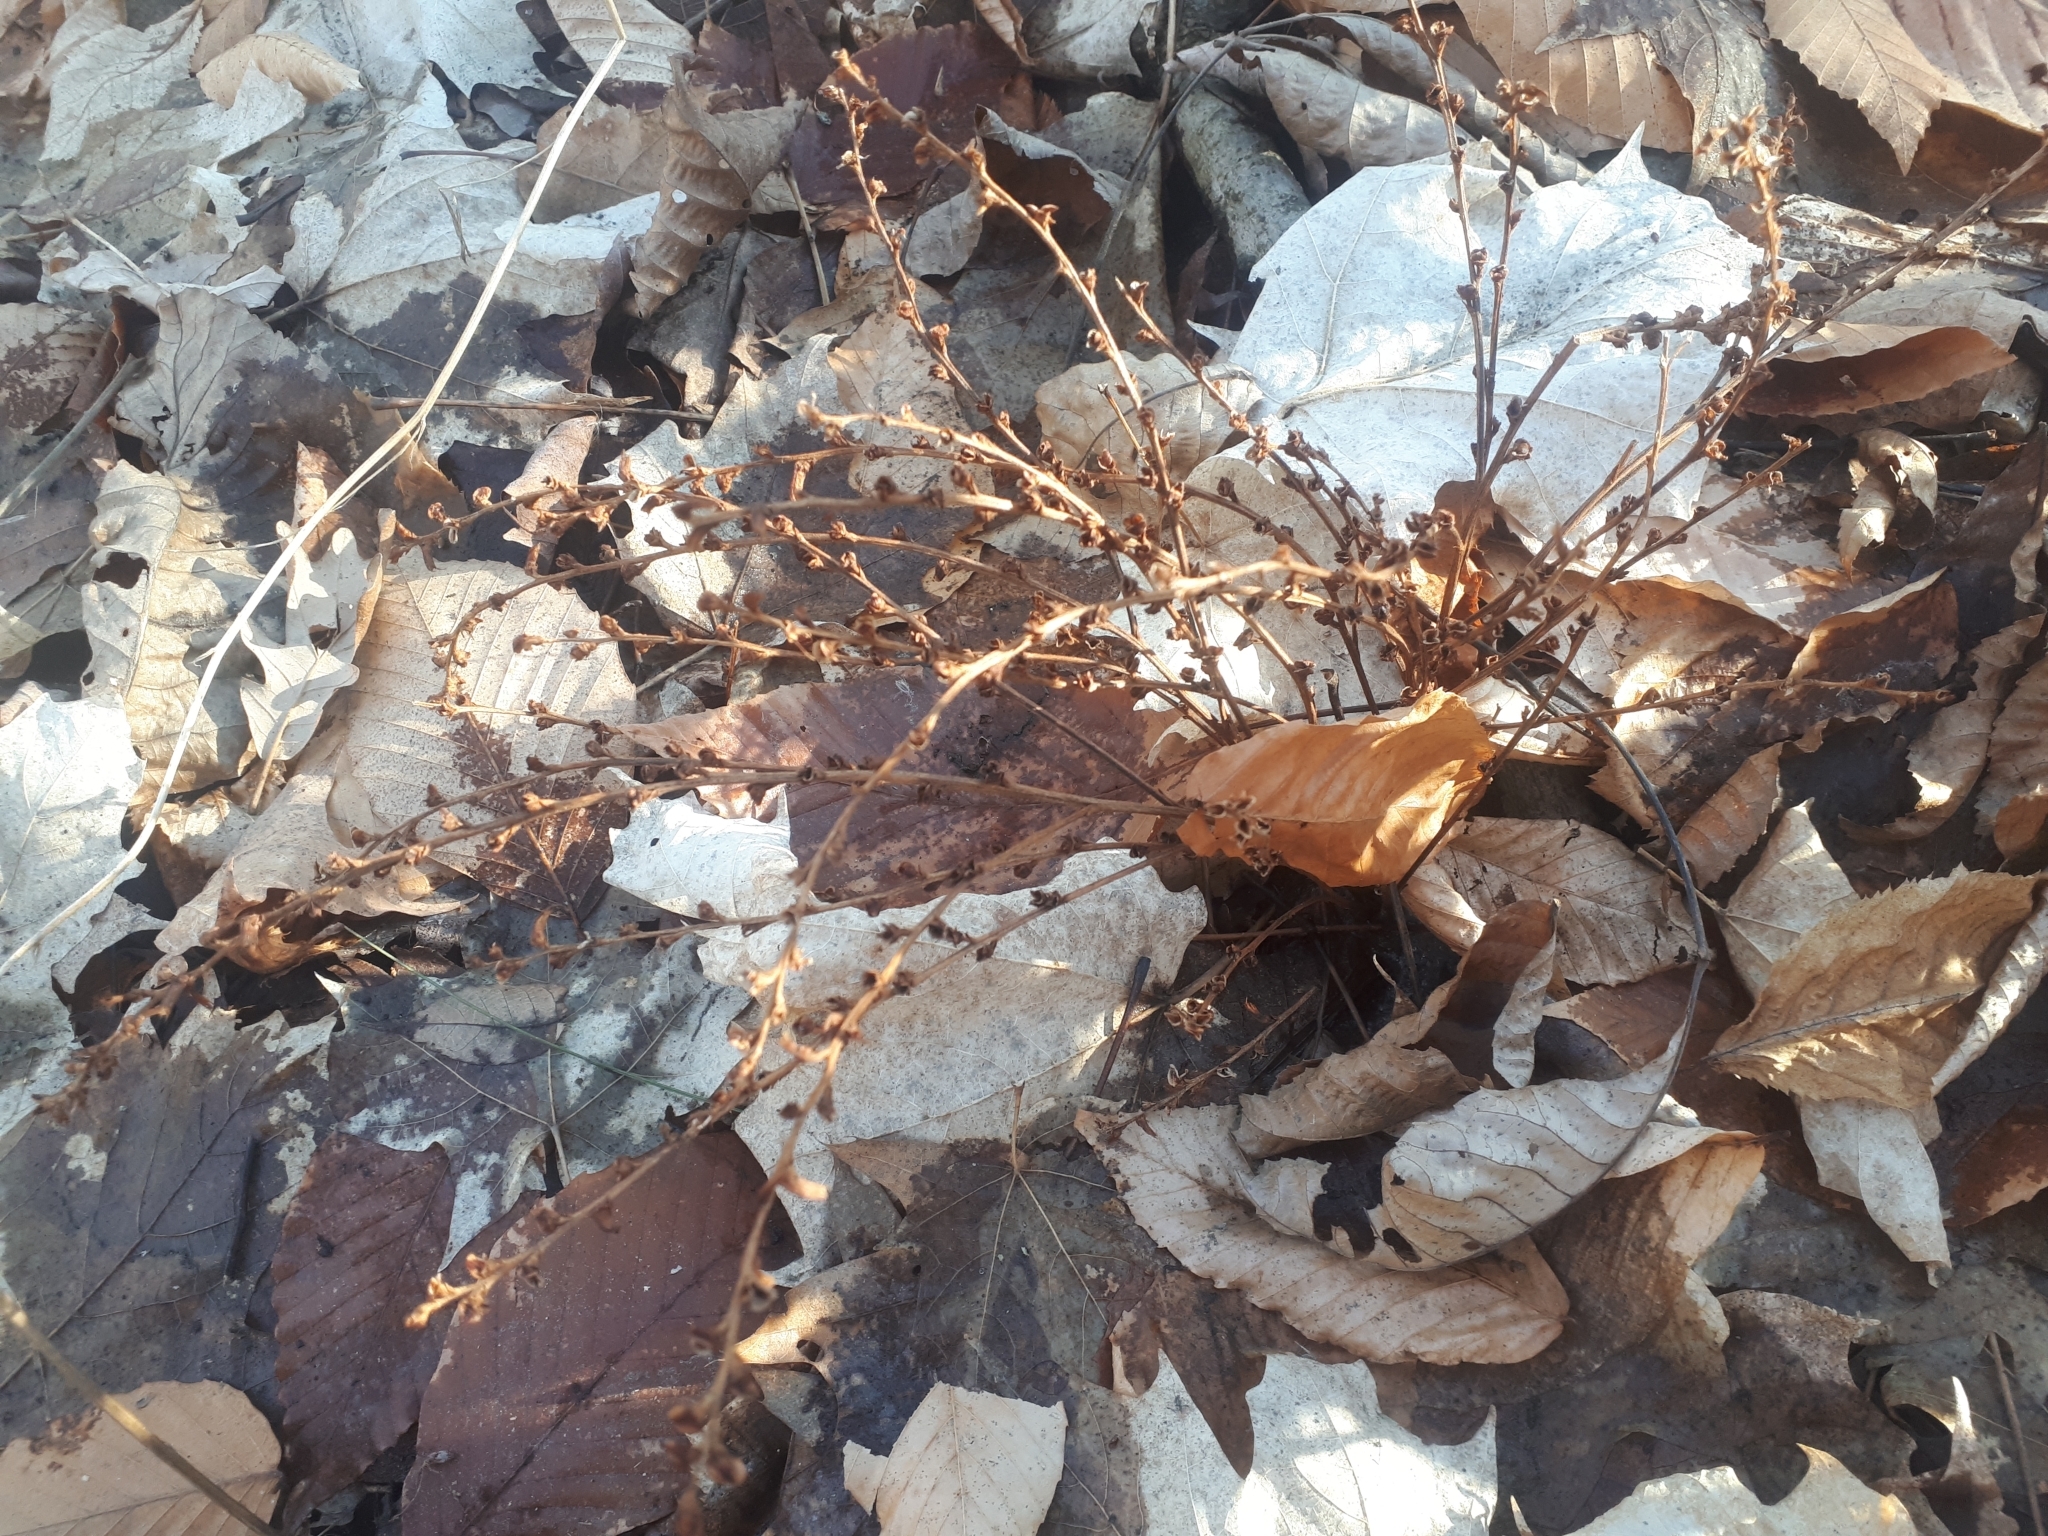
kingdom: Plantae
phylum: Tracheophyta
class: Magnoliopsida
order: Lamiales
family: Orobanchaceae
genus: Epifagus
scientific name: Epifagus virginiana
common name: Beechdrops
